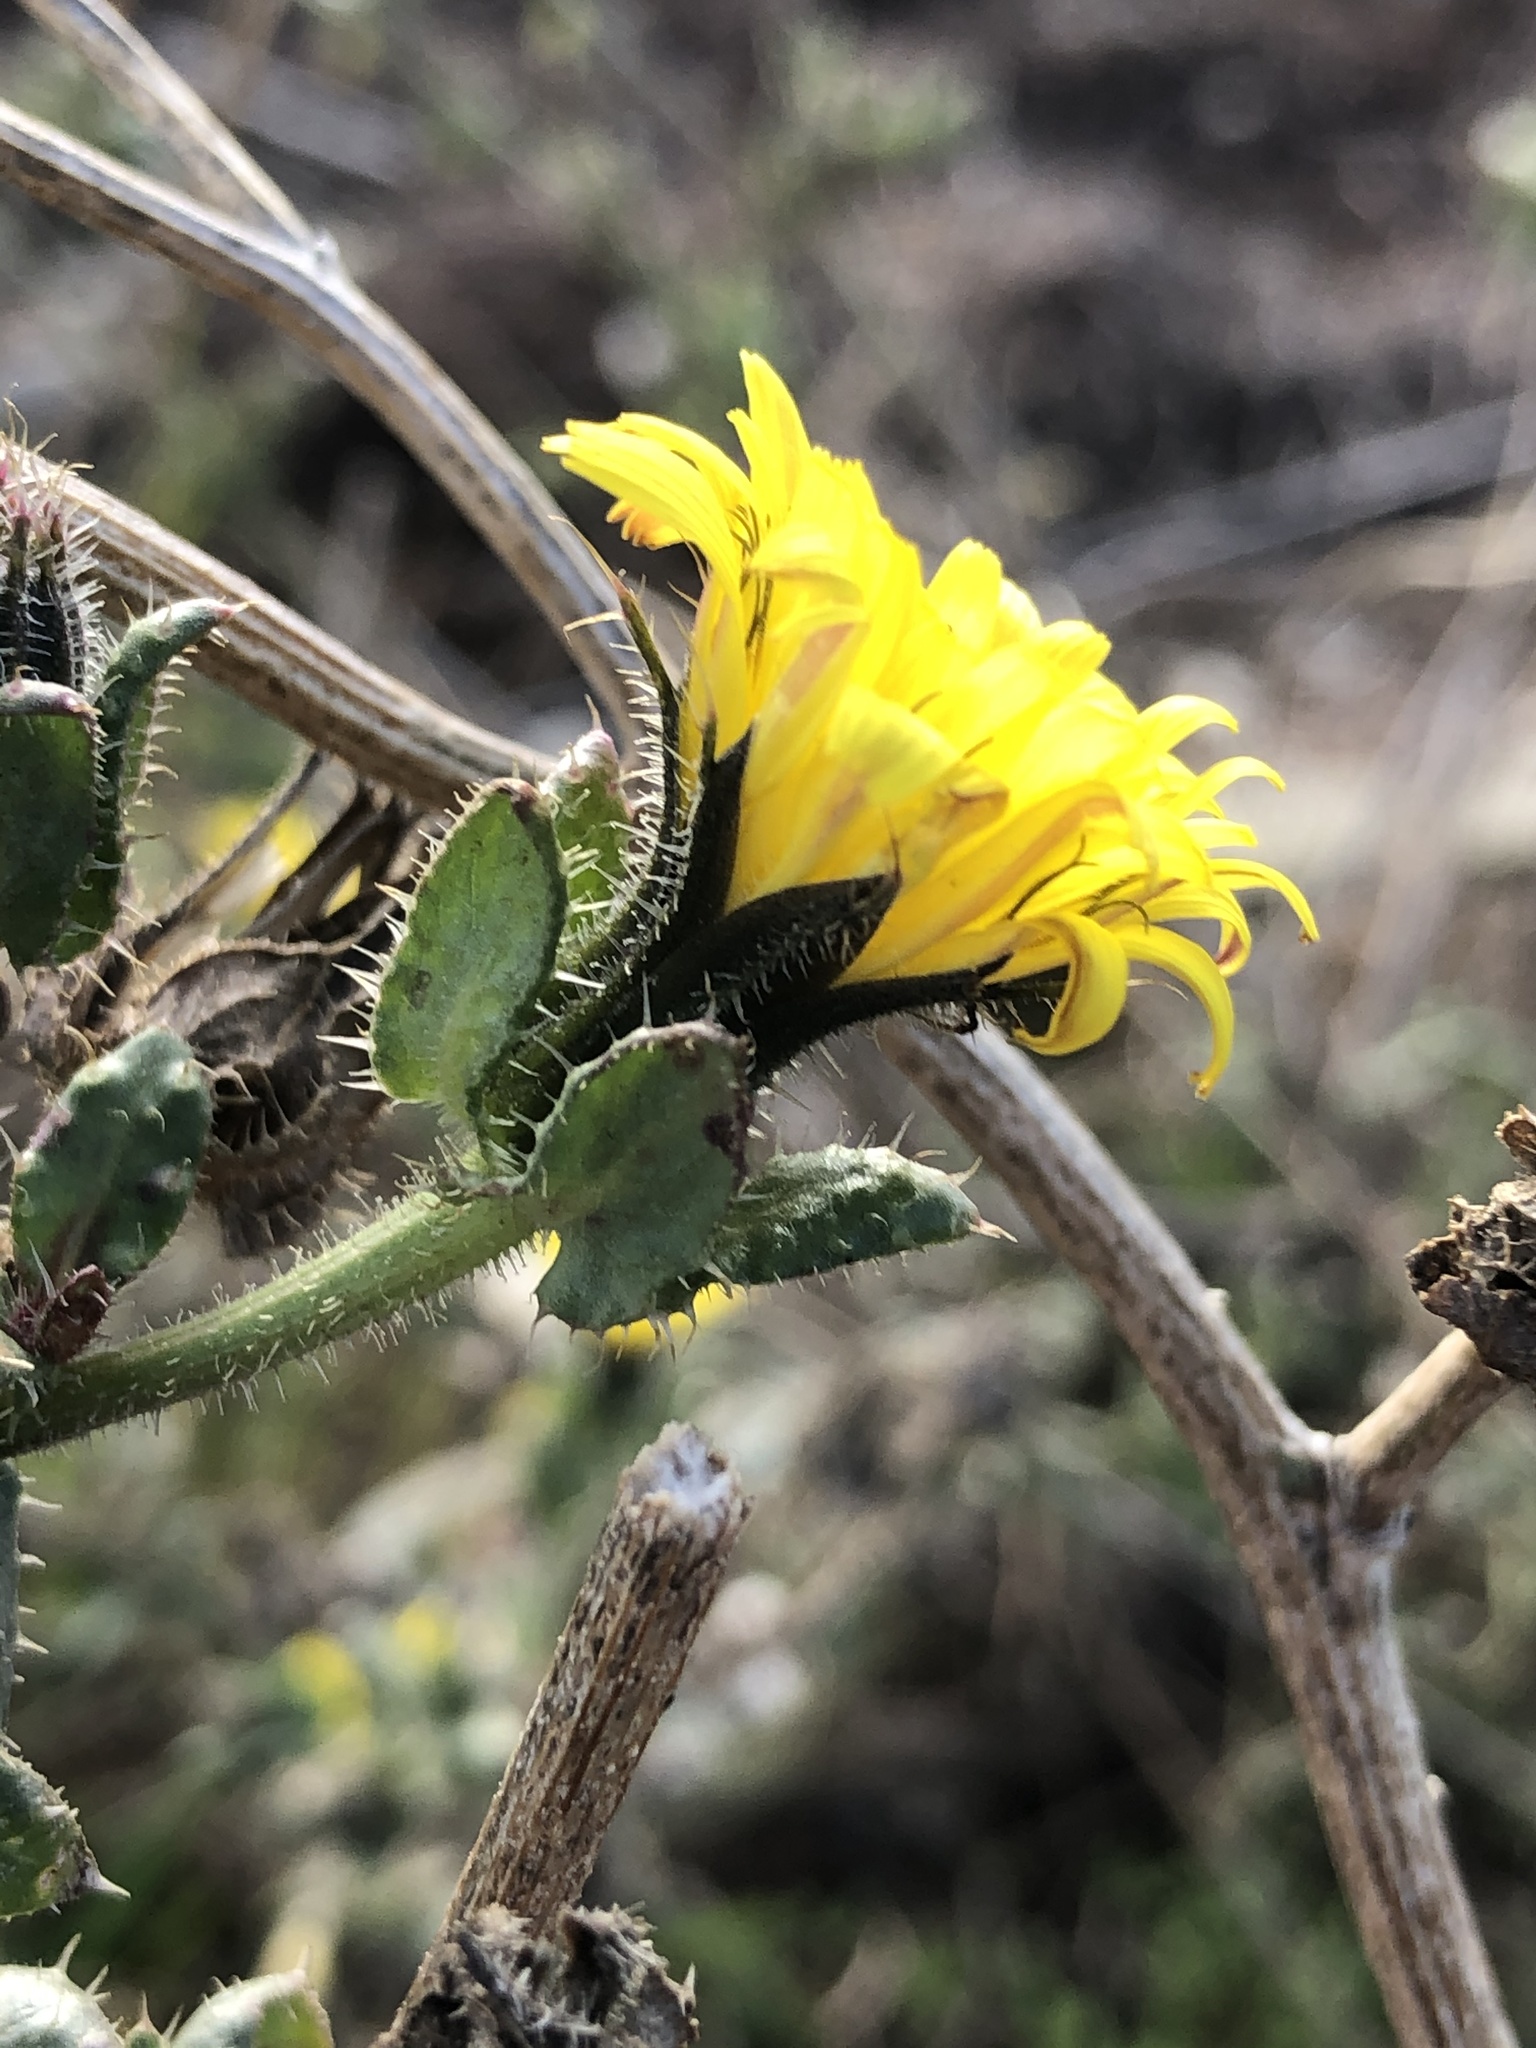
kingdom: Plantae
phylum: Tracheophyta
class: Magnoliopsida
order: Asterales
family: Asteraceae
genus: Helminthotheca
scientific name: Helminthotheca echioides
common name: Ox-tongue
